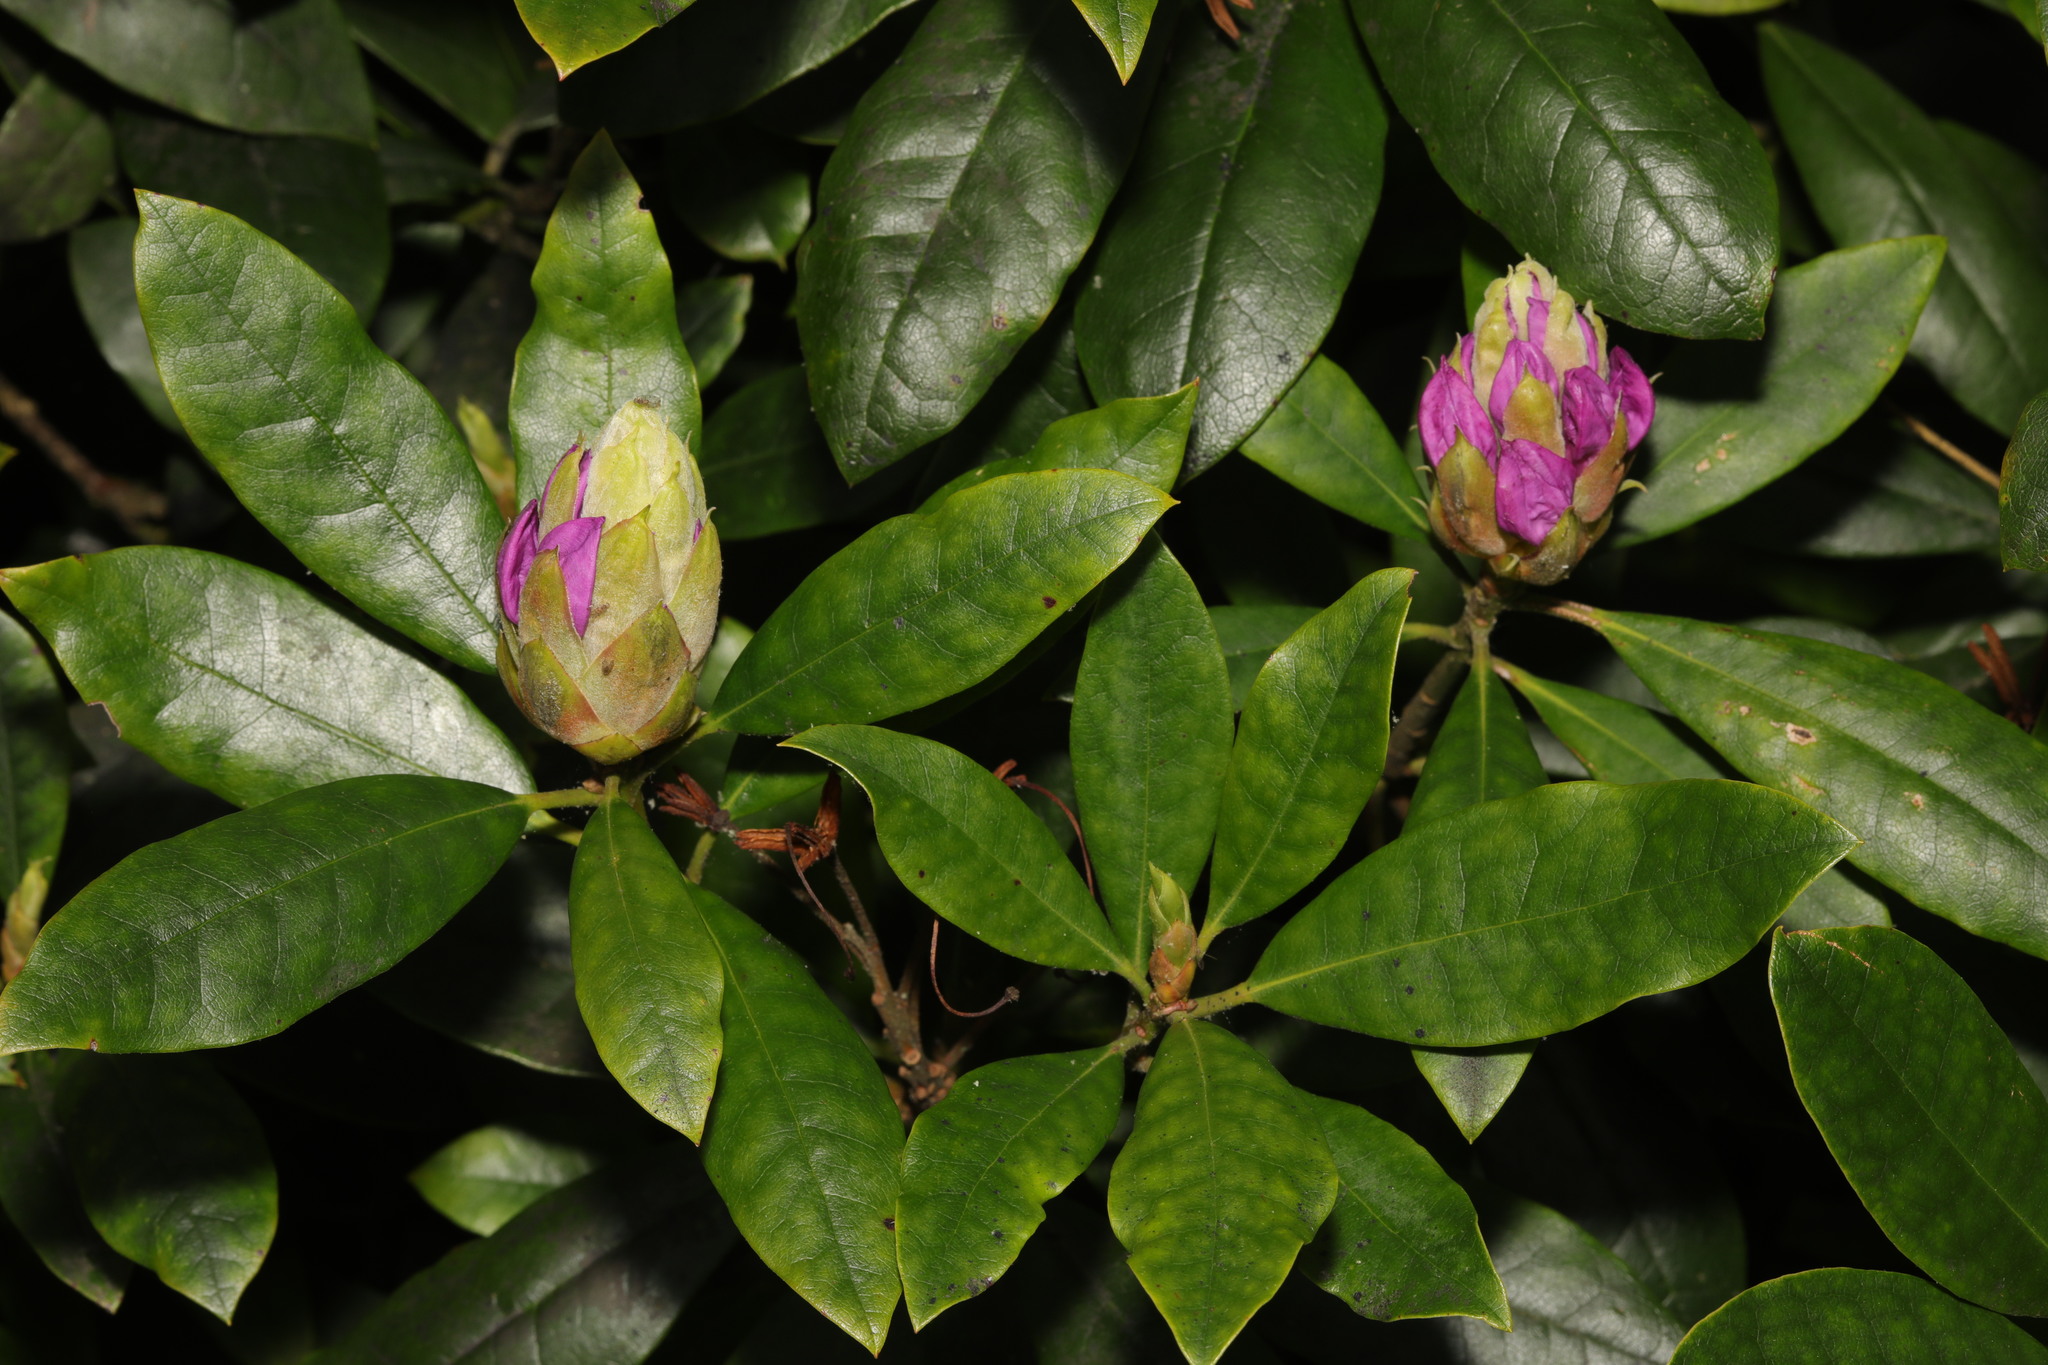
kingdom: Plantae
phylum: Tracheophyta
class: Magnoliopsida
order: Ericales
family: Ericaceae
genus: Rhododendron
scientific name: Rhododendron ponticum
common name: Rhododendron
